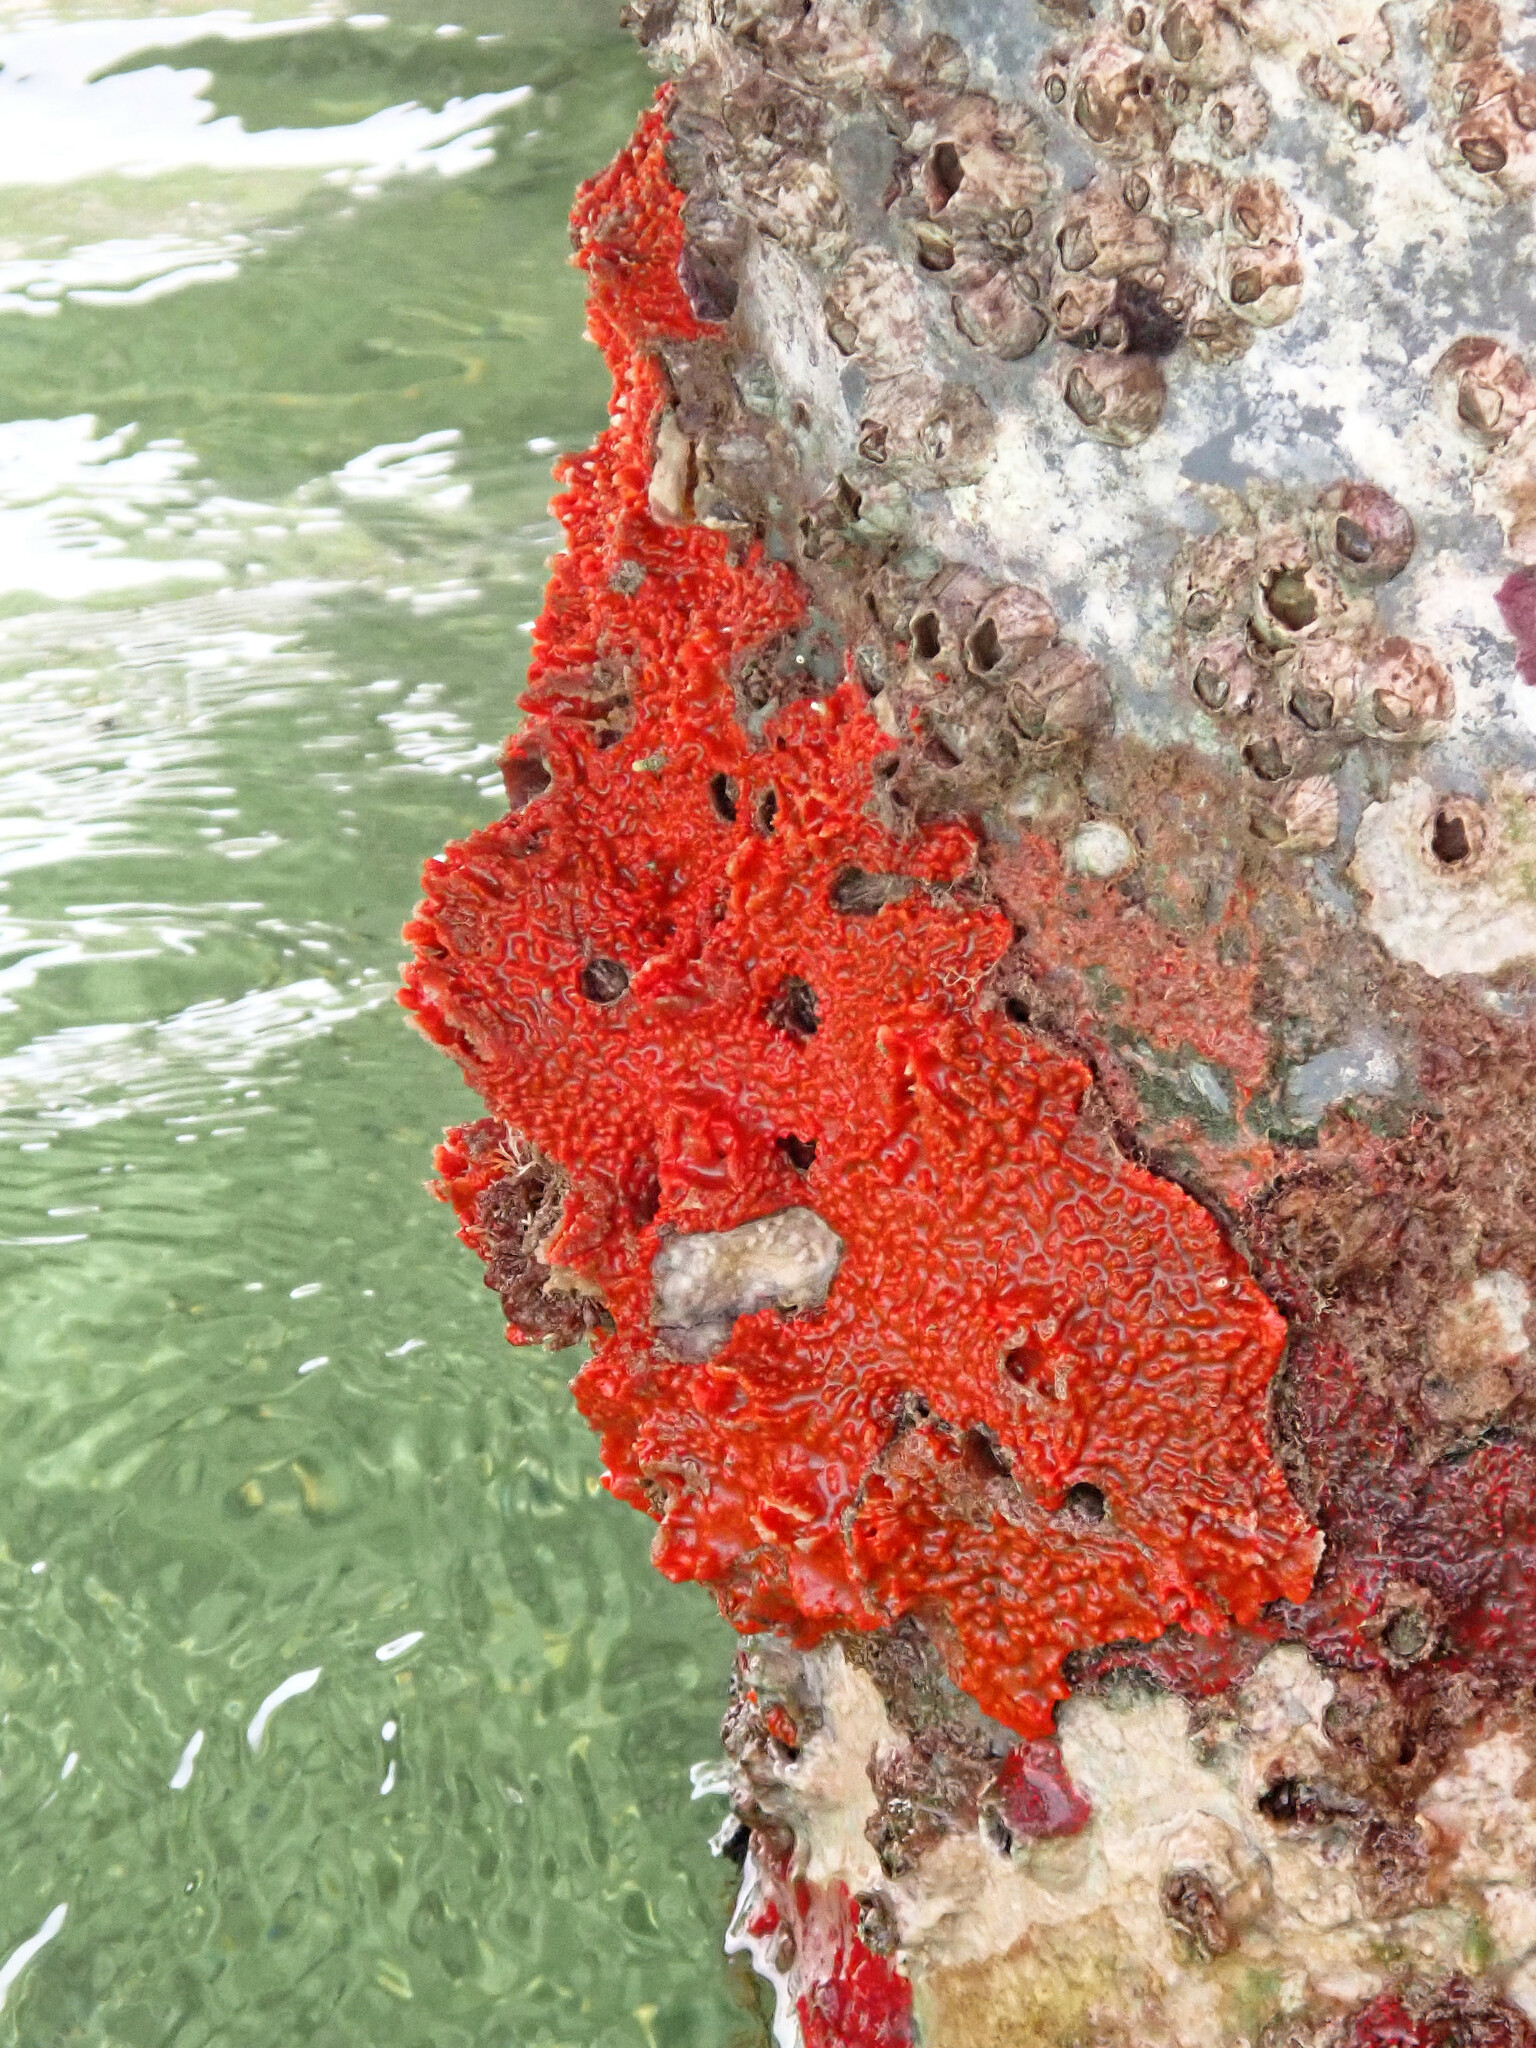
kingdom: Animalia
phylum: Porifera
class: Demospongiae
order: Poecilosclerida
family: Tedaniidae
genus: Tedania
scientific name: Tedania ignis
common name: Sponge
